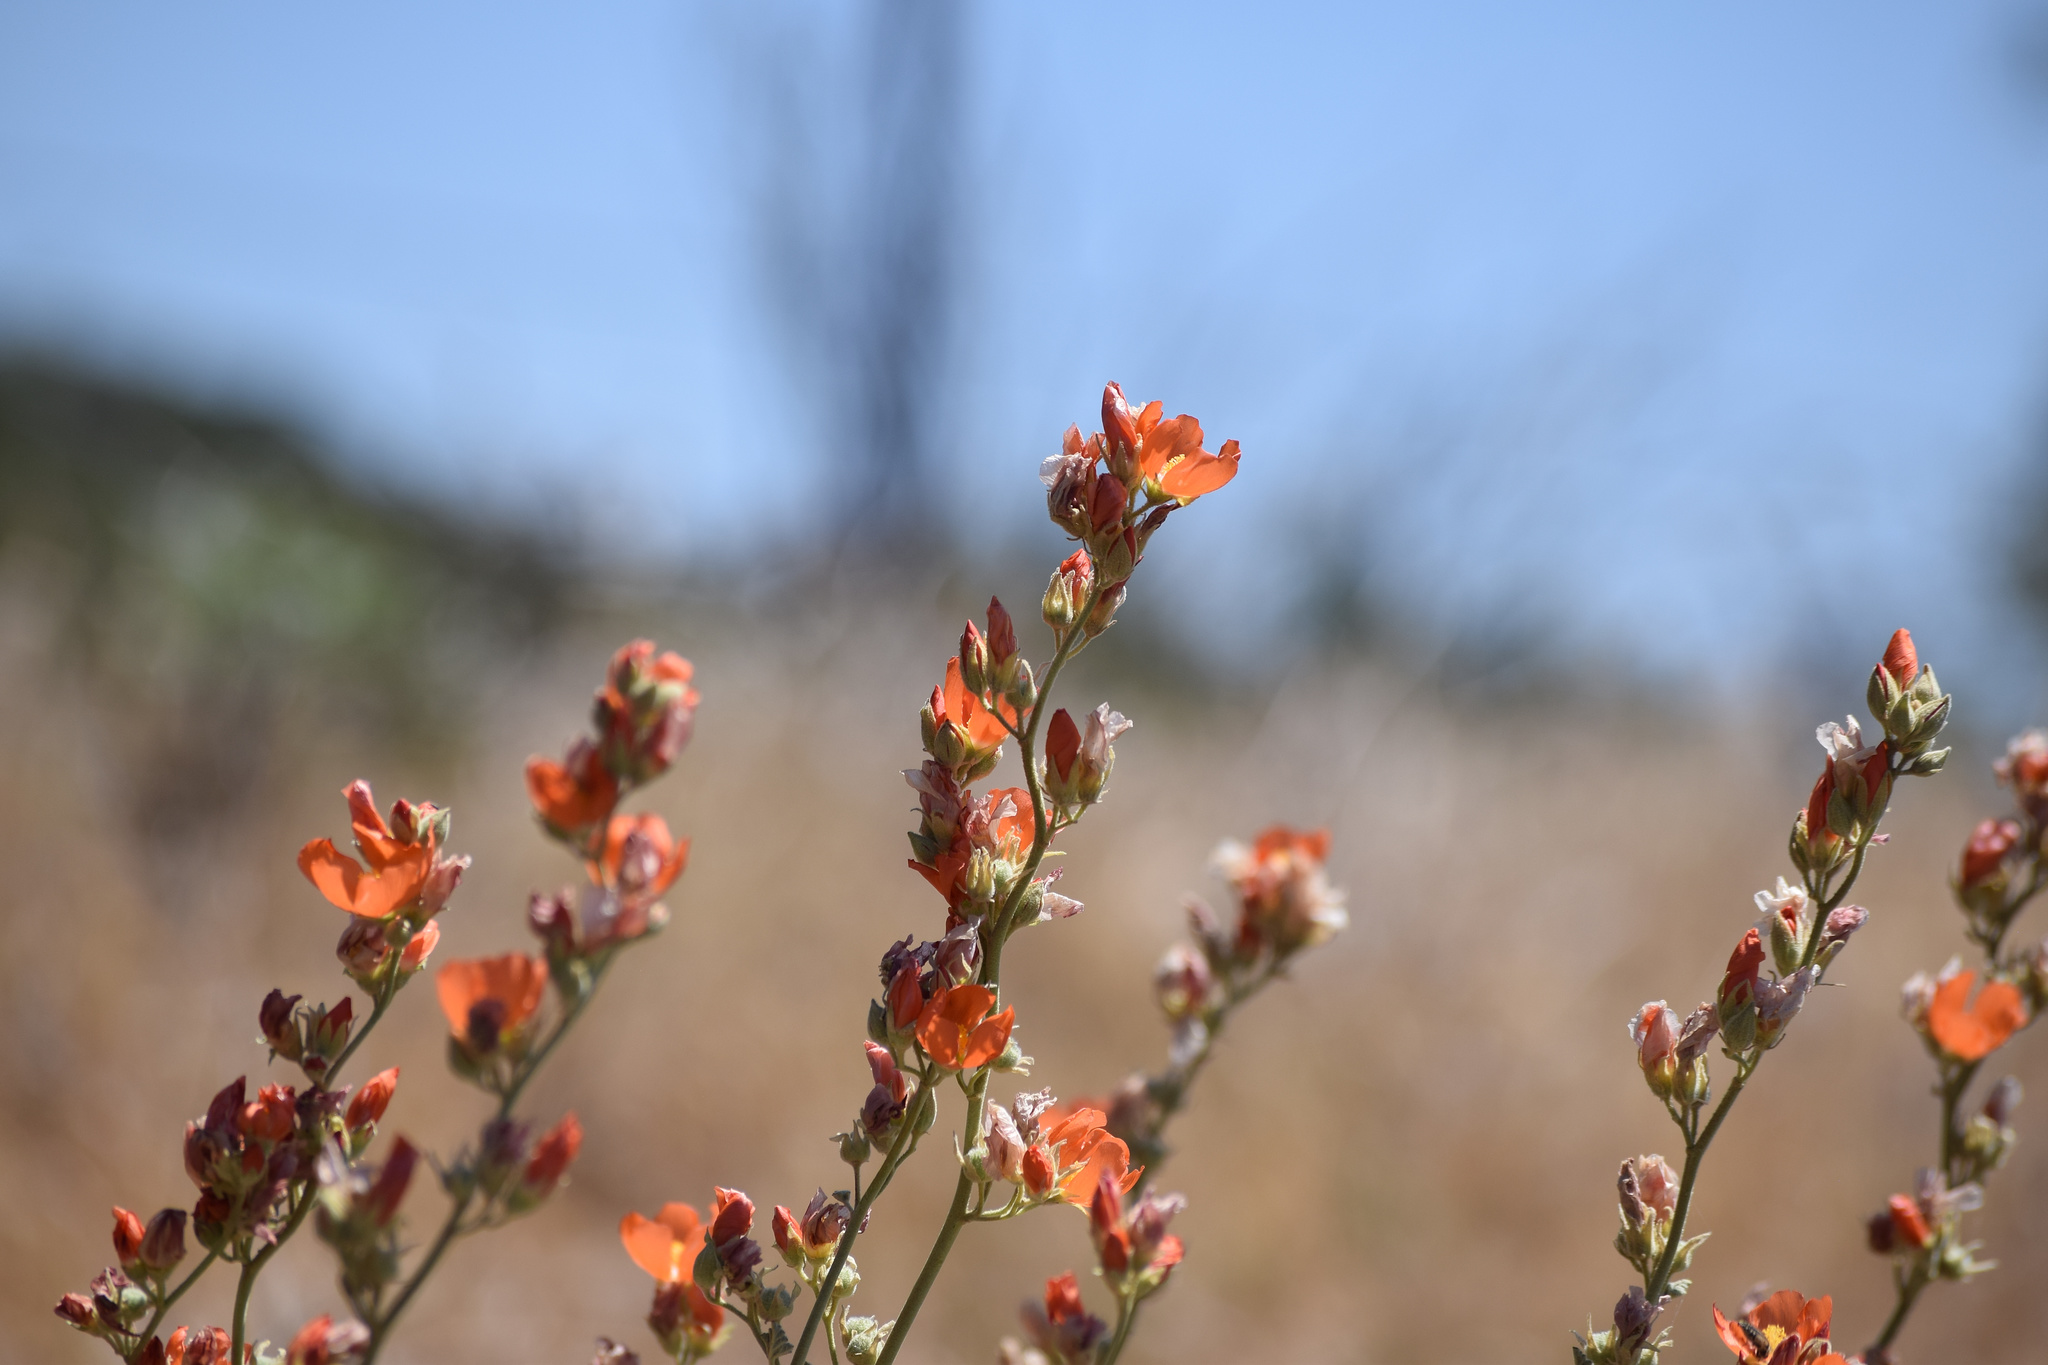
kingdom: Plantae
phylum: Tracheophyta
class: Magnoliopsida
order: Malvales
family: Malvaceae
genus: Sphaeralcea
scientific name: Sphaeralcea ambigua
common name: Apricot globe-mallow
